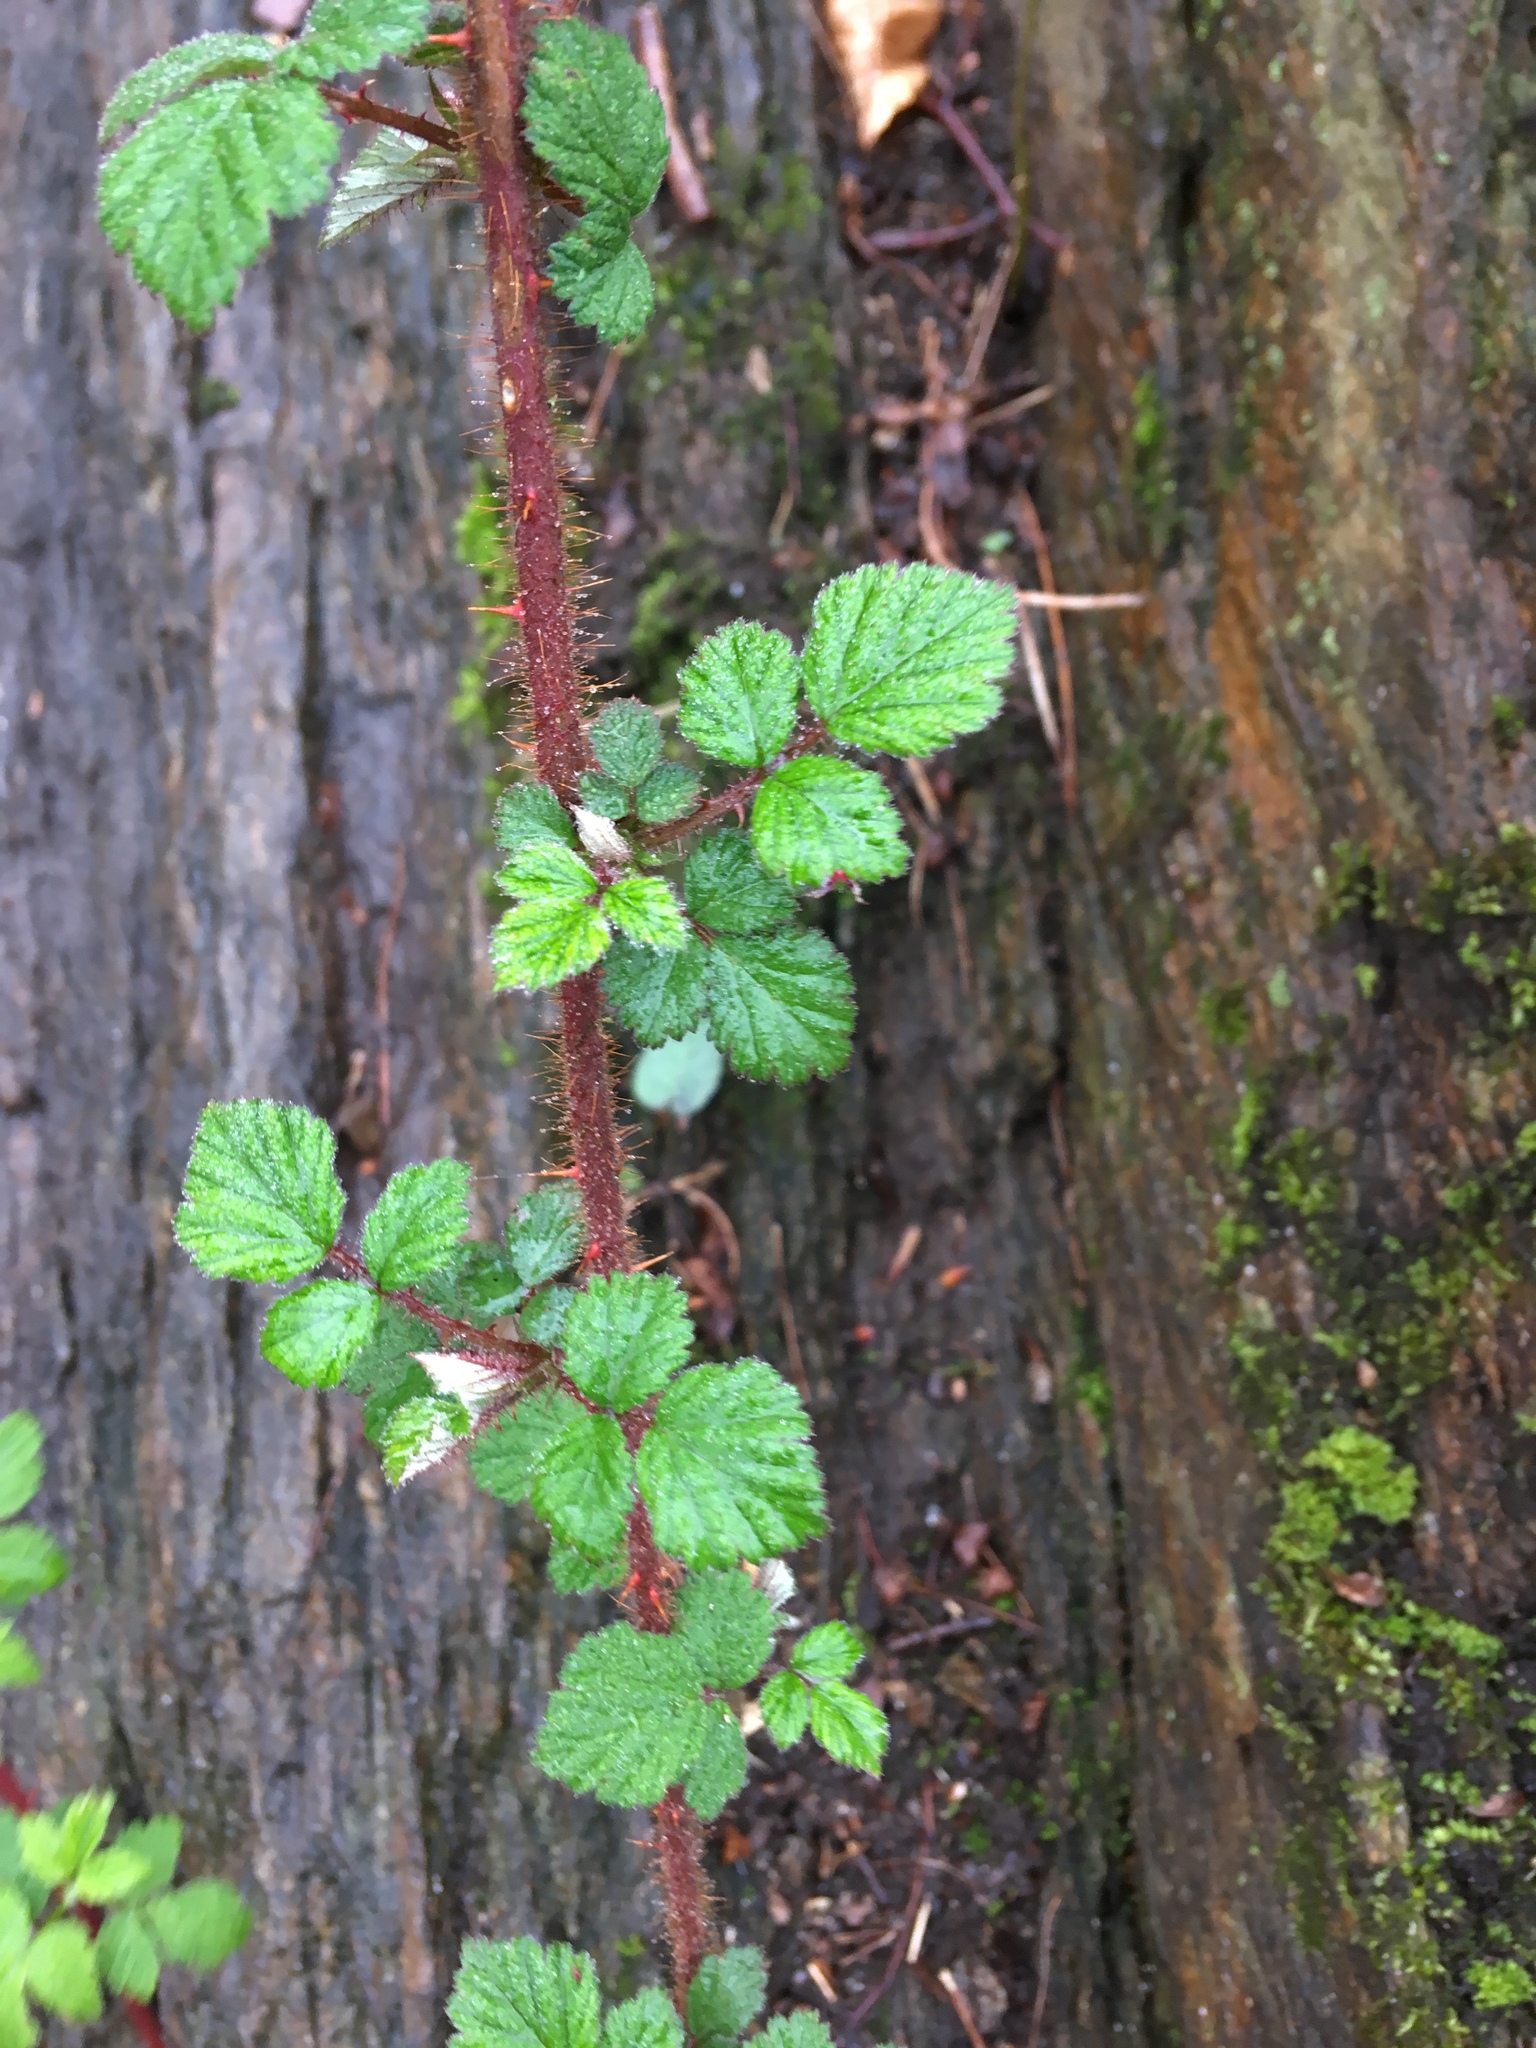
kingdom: Plantae
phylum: Tracheophyta
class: Magnoliopsida
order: Rosales
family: Rosaceae
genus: Rubus
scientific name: Rubus phoenicolasius
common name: Japanese wineberry
